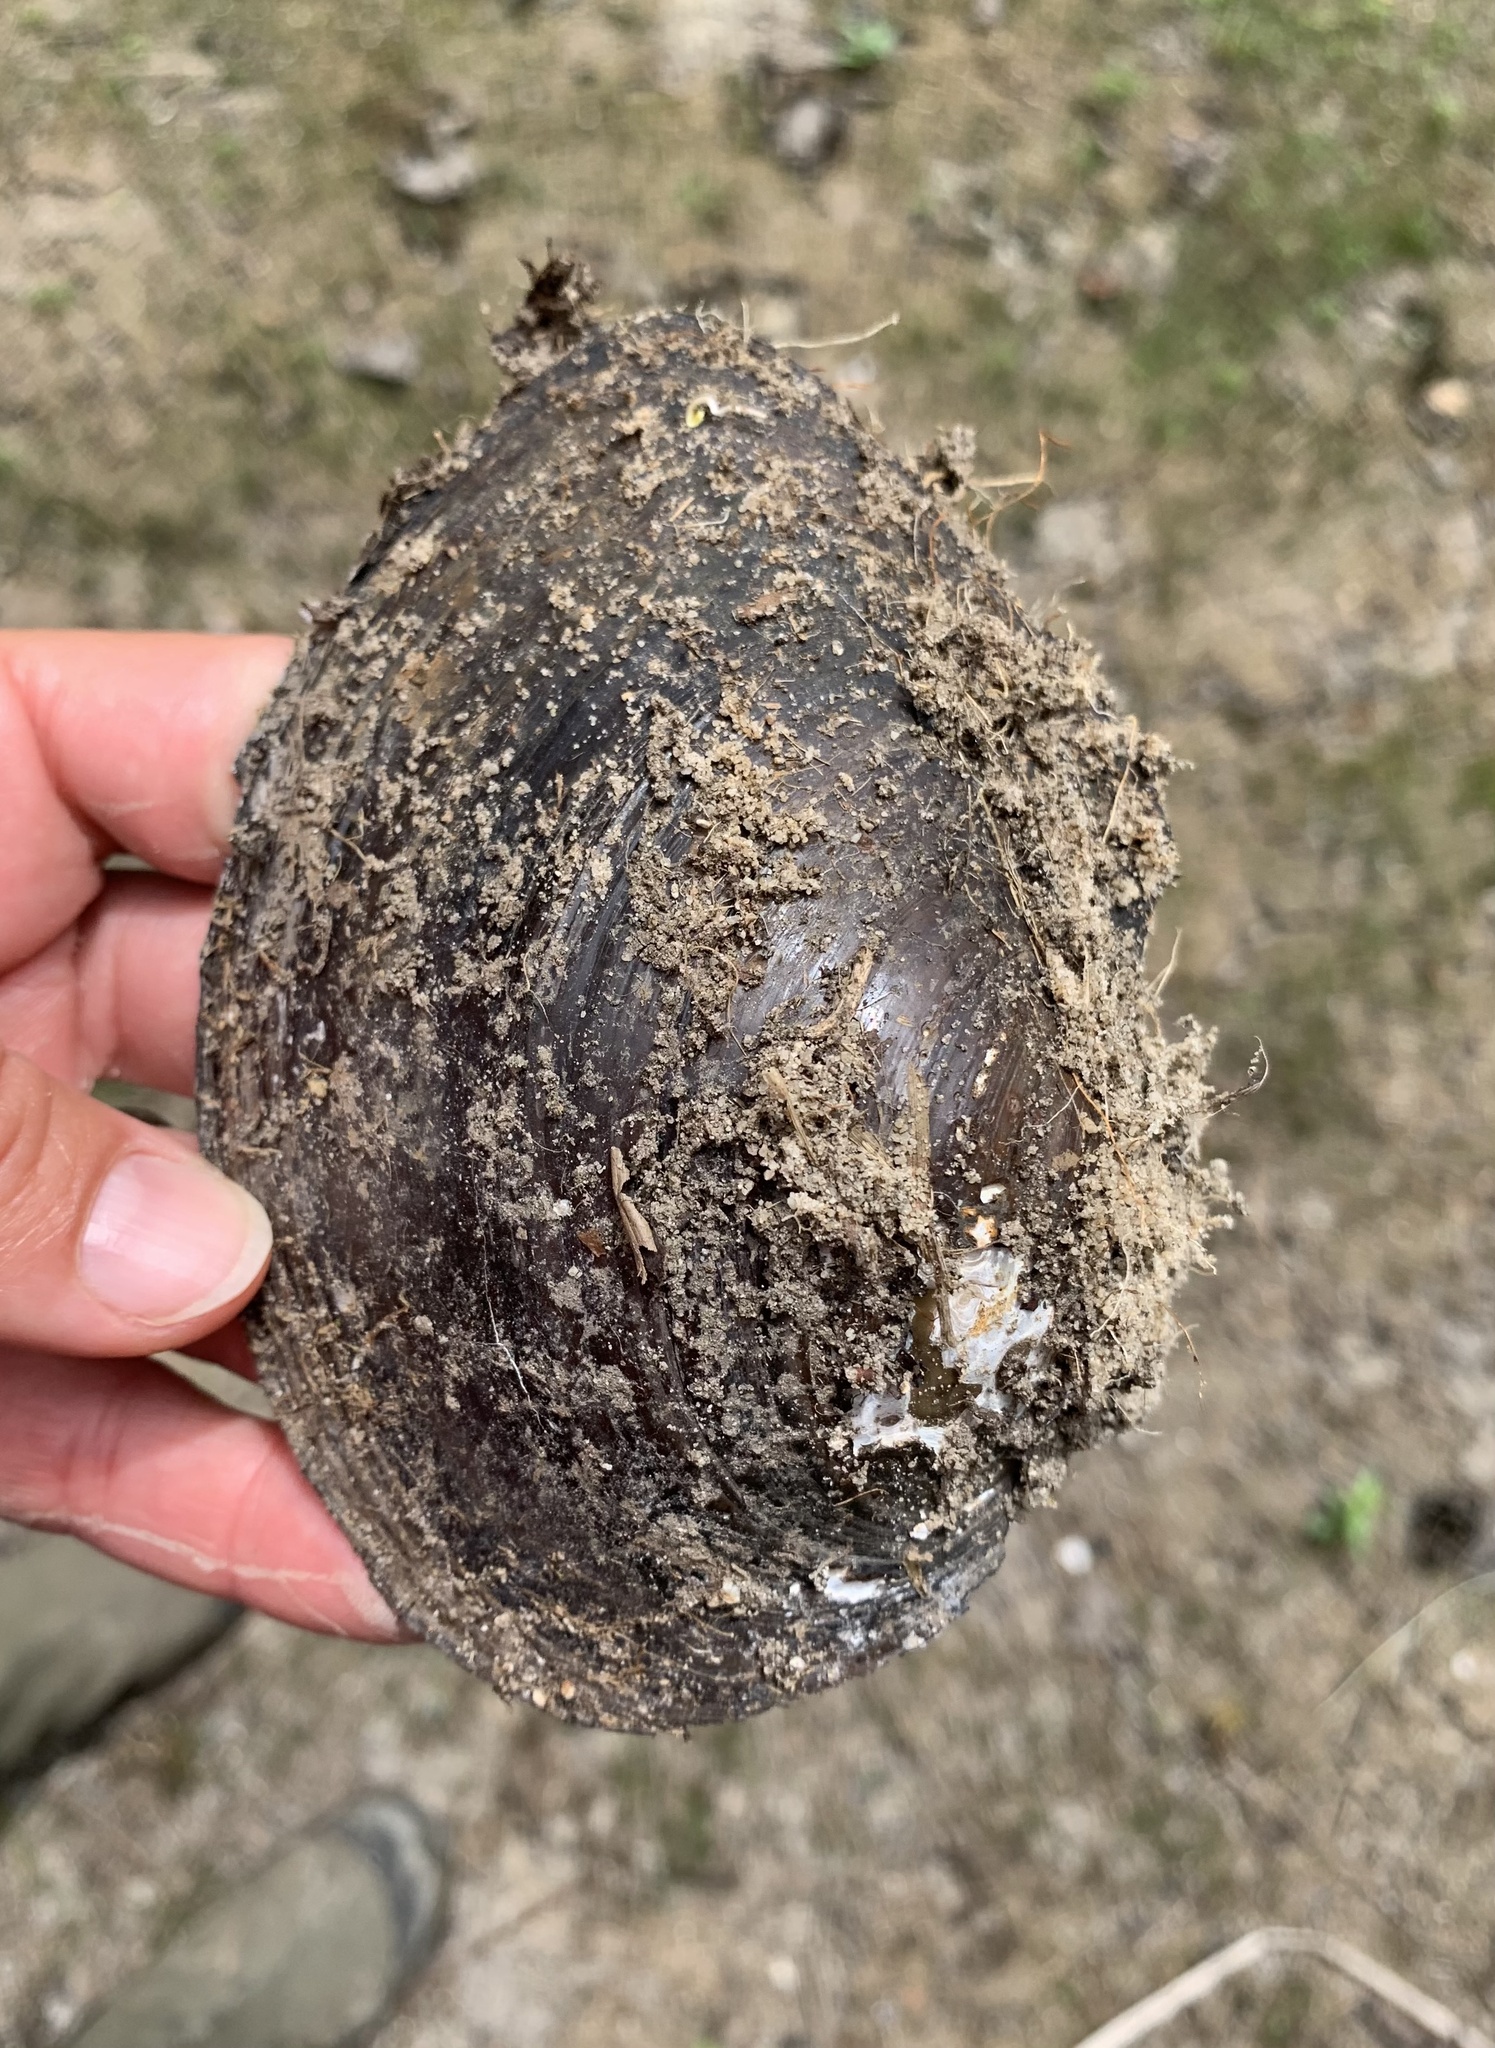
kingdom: Animalia
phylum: Mollusca
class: Bivalvia
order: Unionida
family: Unionidae
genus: Sinanodonta
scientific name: Sinanodonta woodiana
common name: Chinese pond mussel
